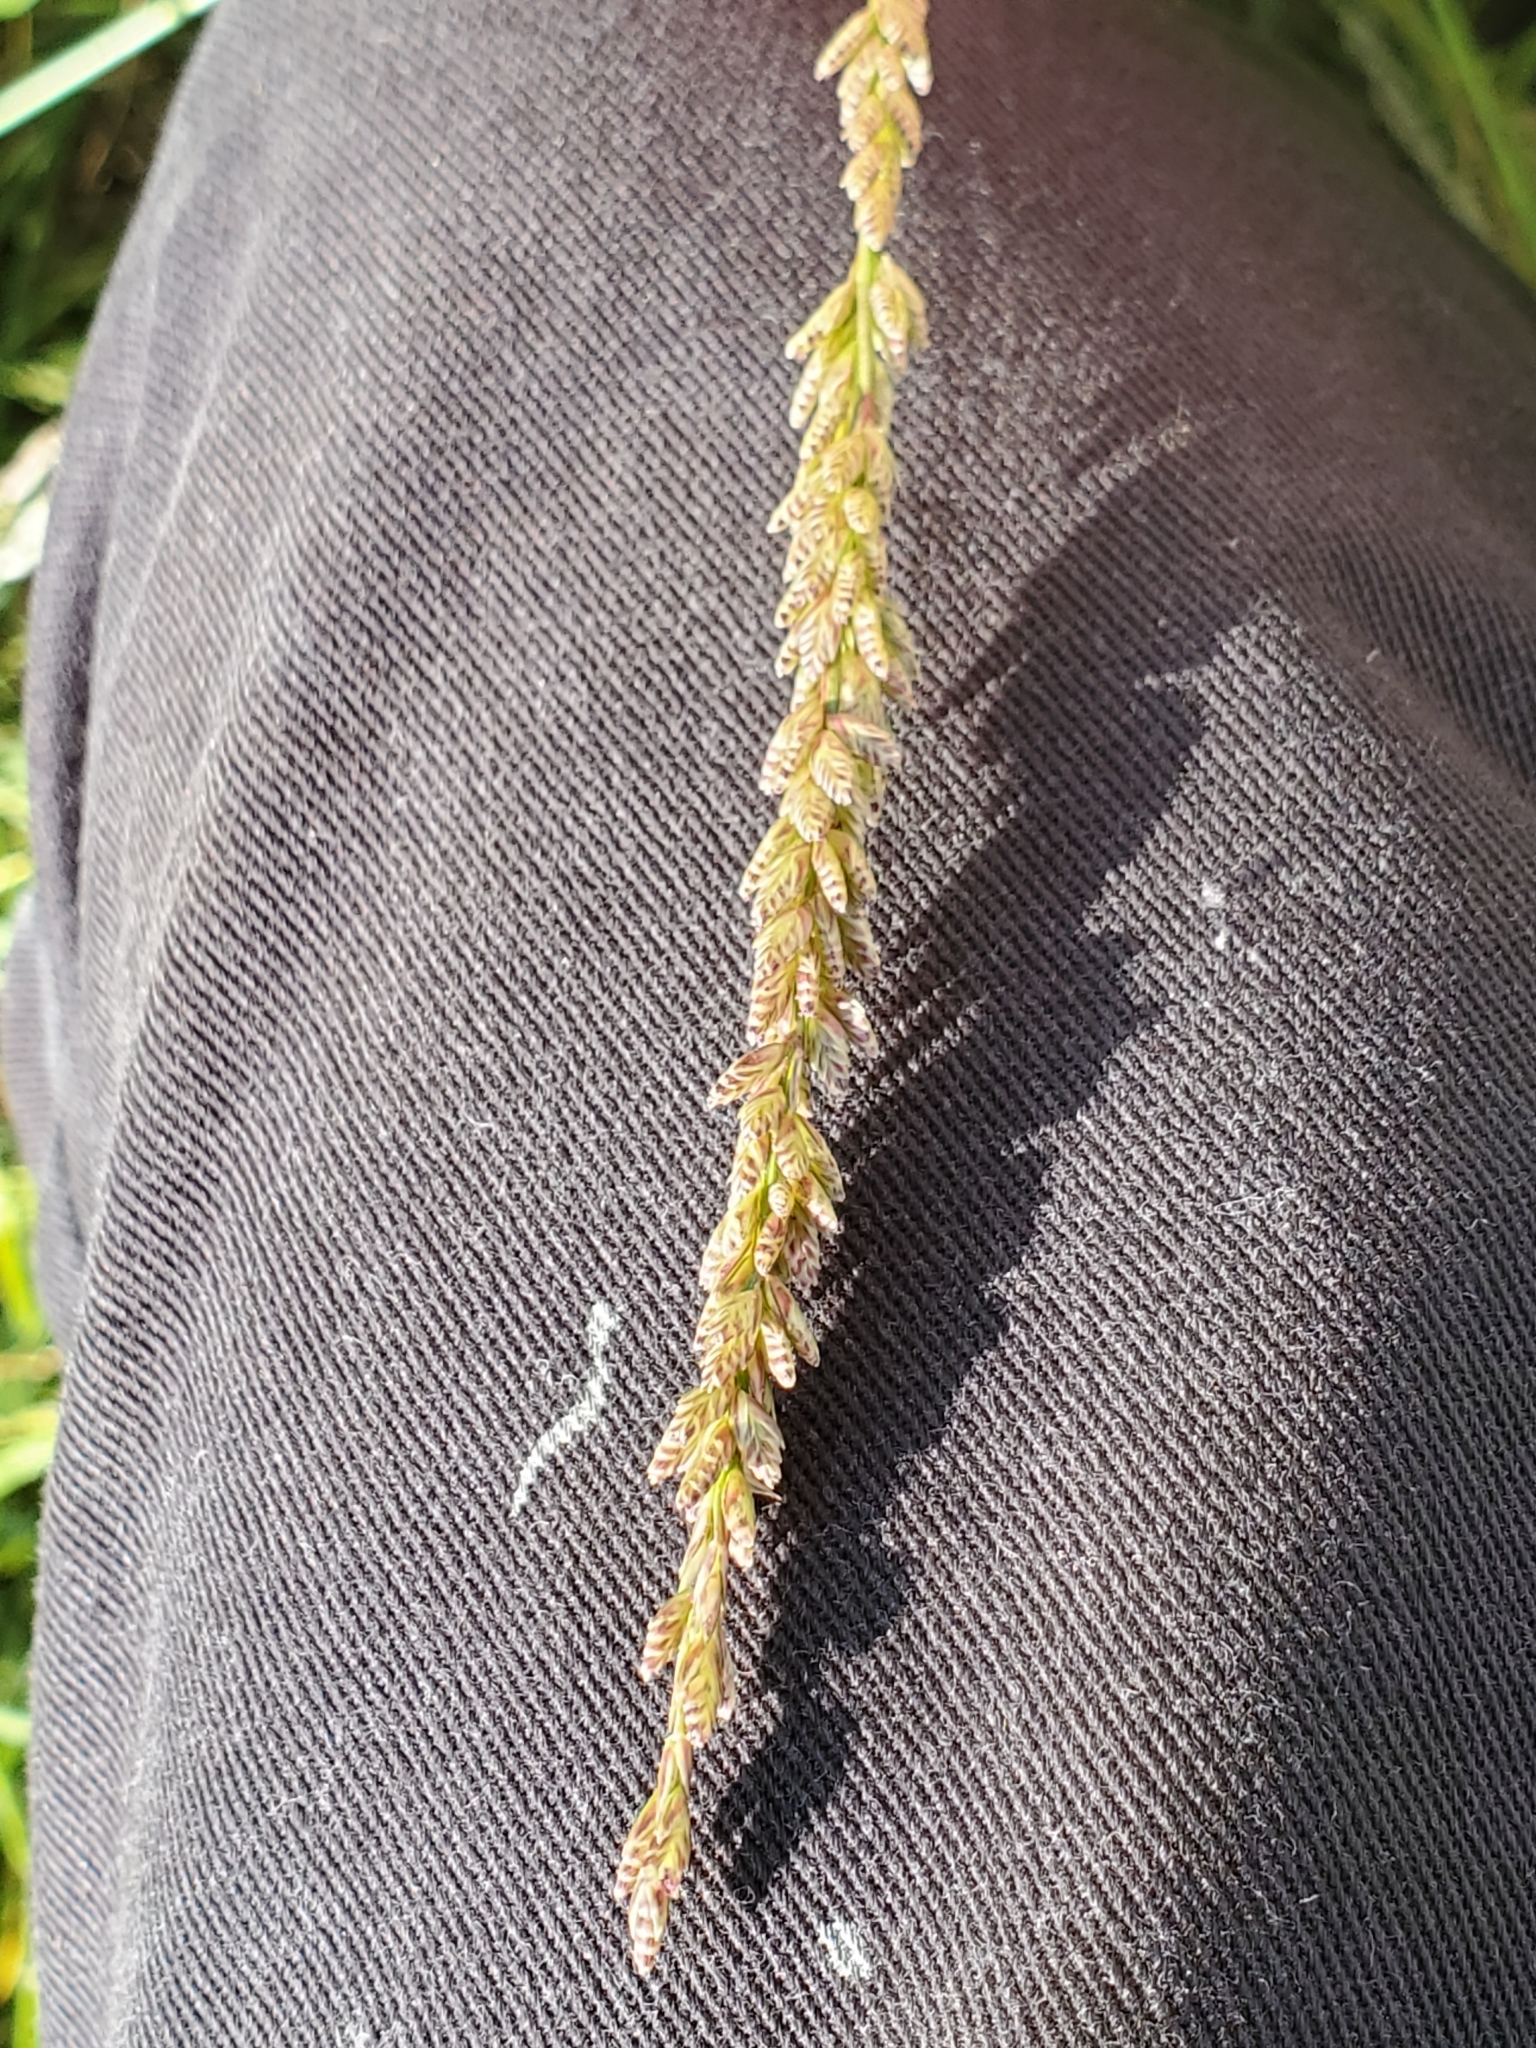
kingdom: Plantae
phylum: Tracheophyta
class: Liliopsida
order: Poales
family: Poaceae
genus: Tridens
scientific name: Tridens albescens
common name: White tridens
